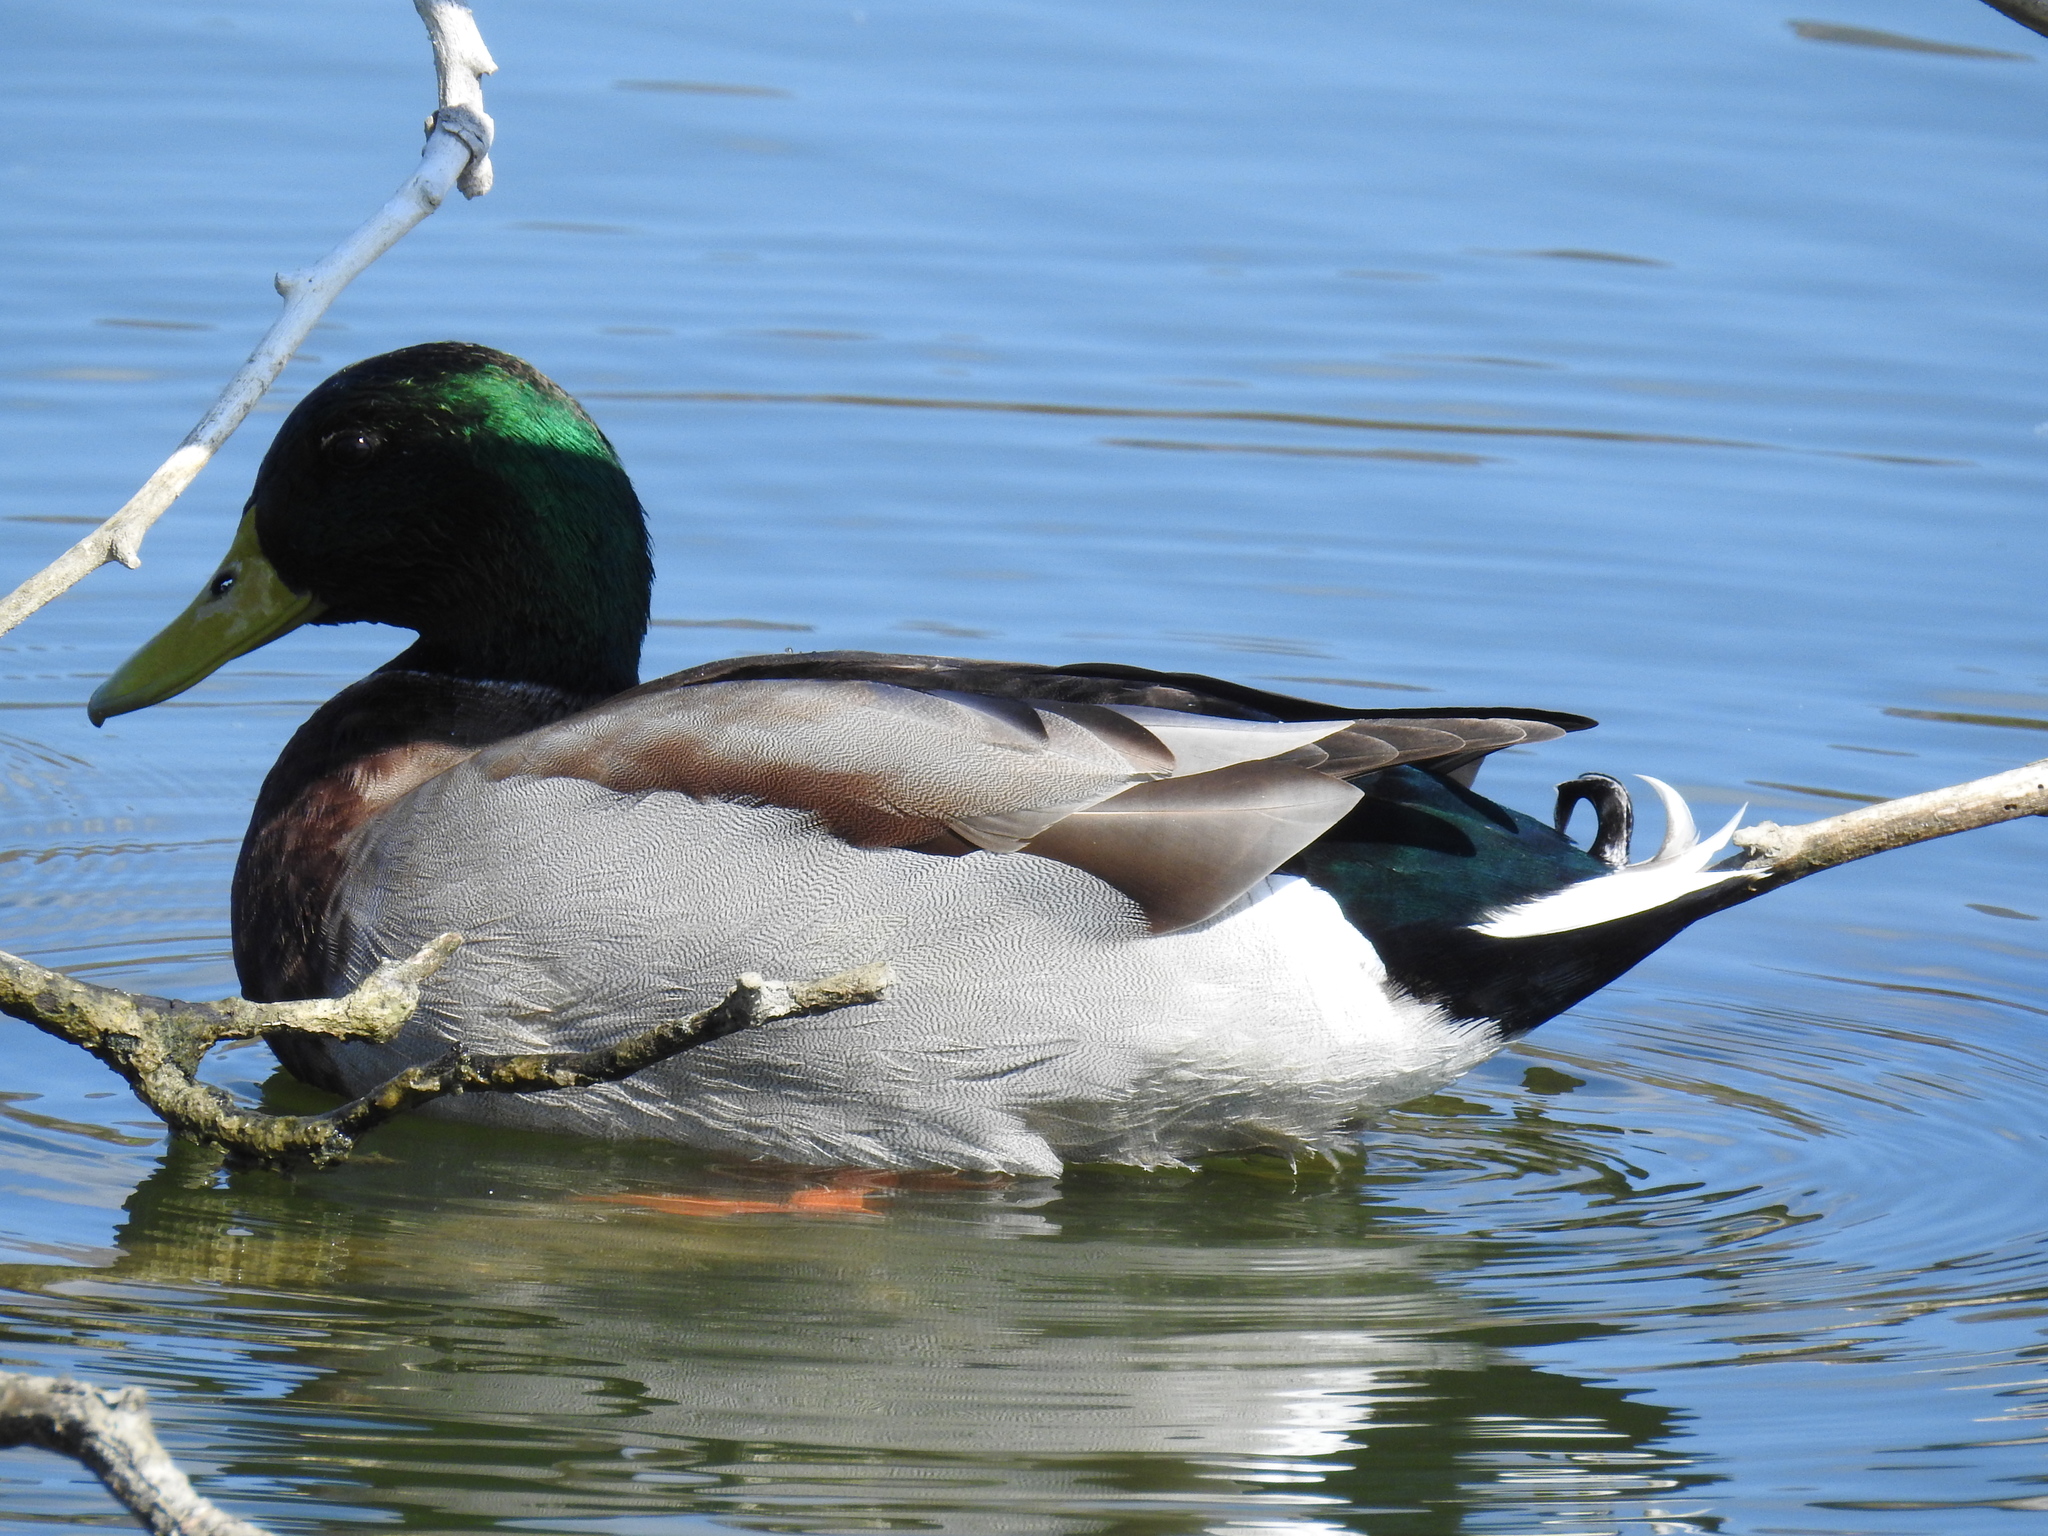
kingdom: Animalia
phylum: Chordata
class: Aves
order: Anseriformes
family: Anatidae
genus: Anas
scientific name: Anas platyrhynchos
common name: Mallard
